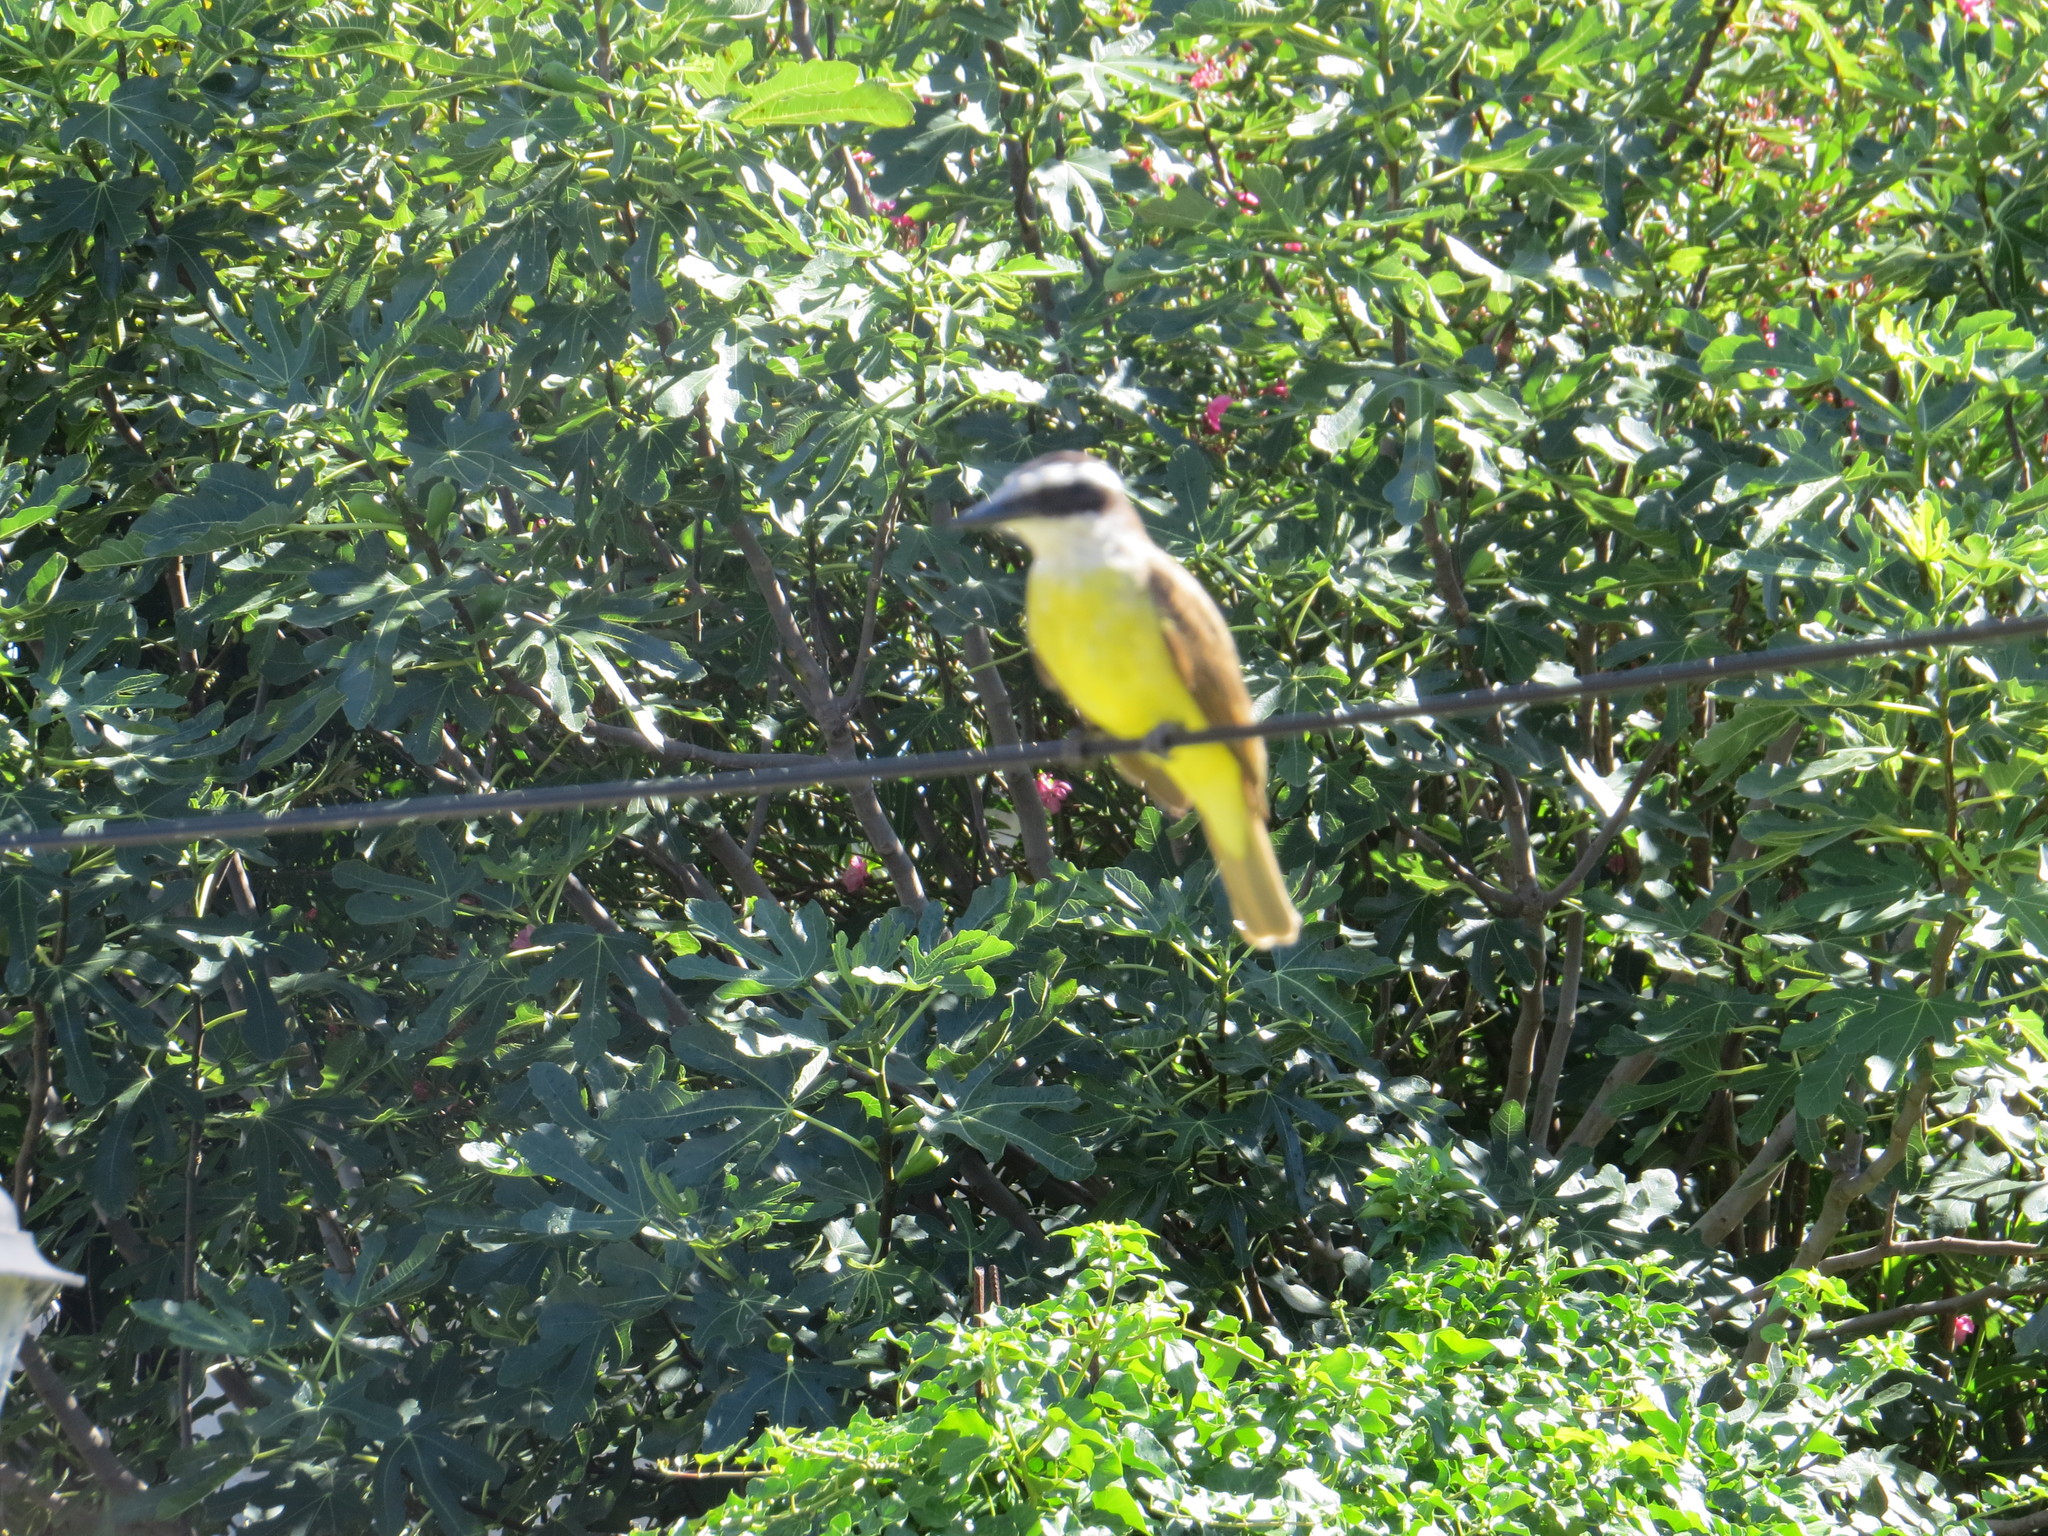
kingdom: Animalia
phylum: Chordata
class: Aves
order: Passeriformes
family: Tyrannidae
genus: Pitangus
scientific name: Pitangus sulphuratus
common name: Great kiskadee
